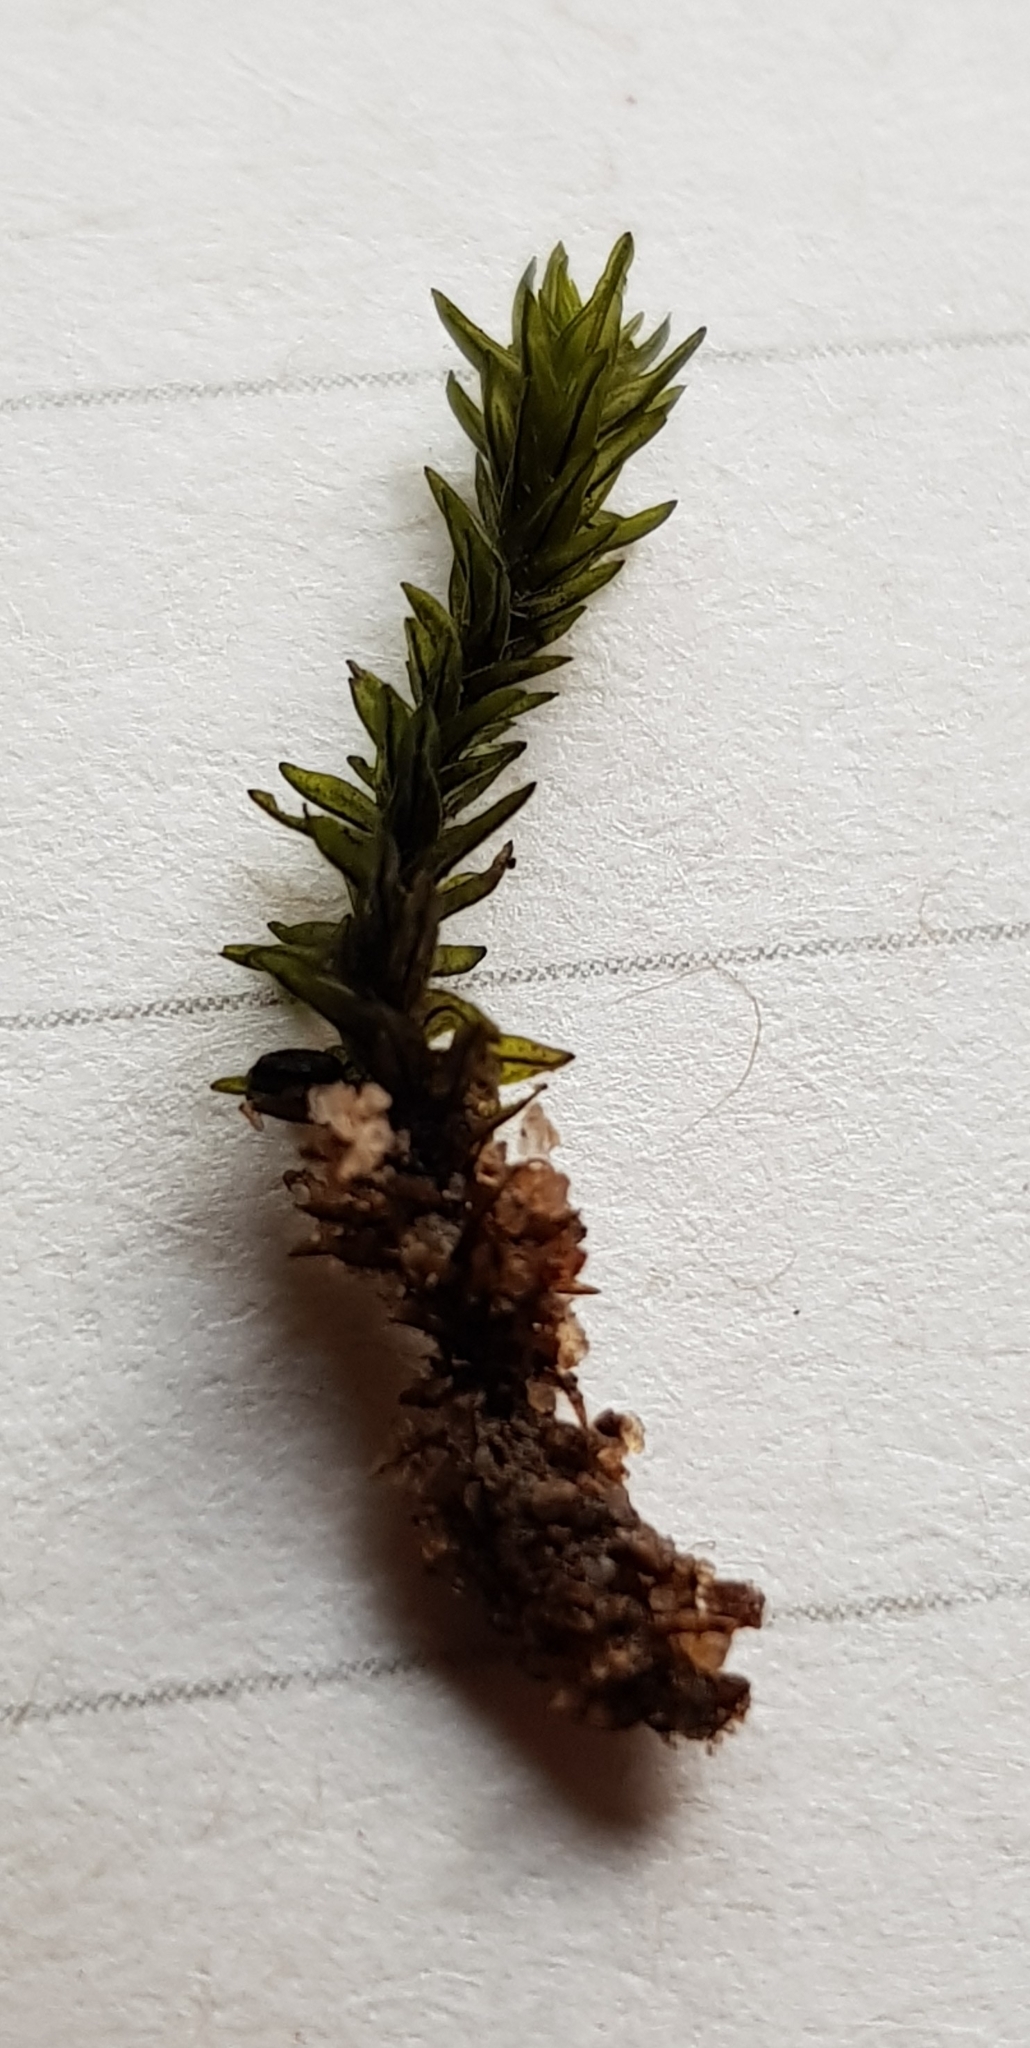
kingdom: Plantae
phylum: Bryophyta
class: Bryopsida
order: Grimmiales
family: Grimmiaceae
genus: Codriophorus
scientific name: Codriophorus acicularis
